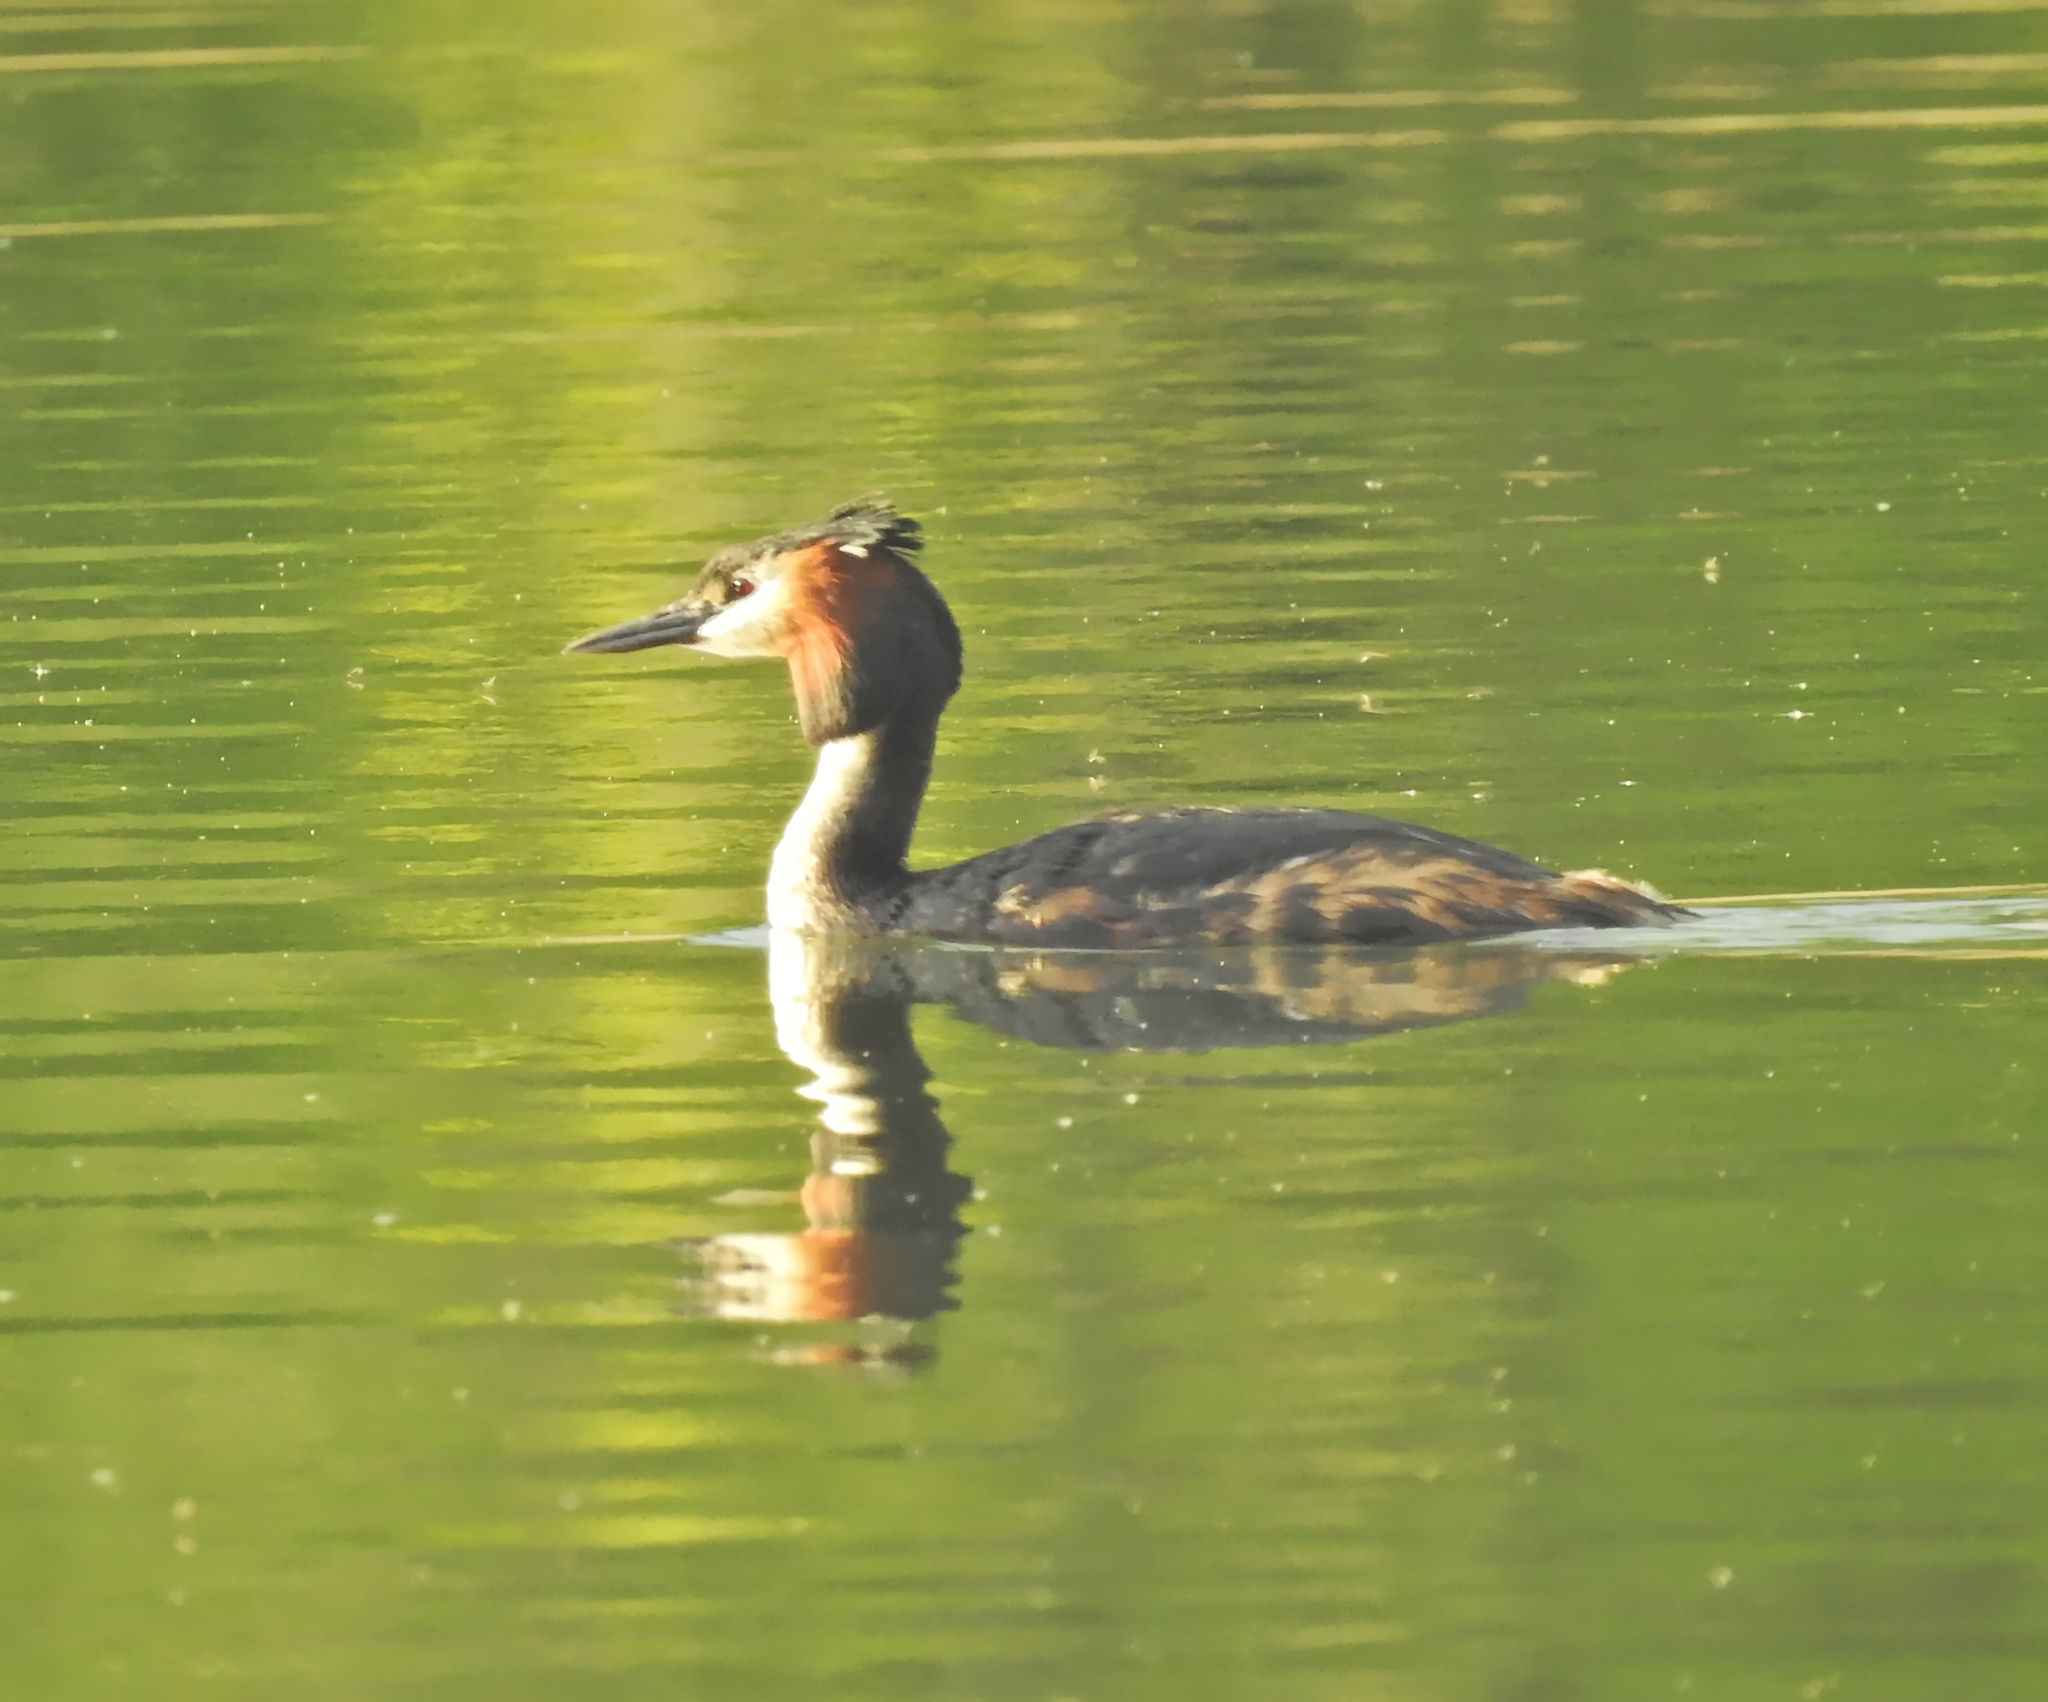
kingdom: Animalia
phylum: Chordata
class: Aves
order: Podicipediformes
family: Podicipedidae
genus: Podiceps
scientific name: Podiceps cristatus
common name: Great crested grebe
